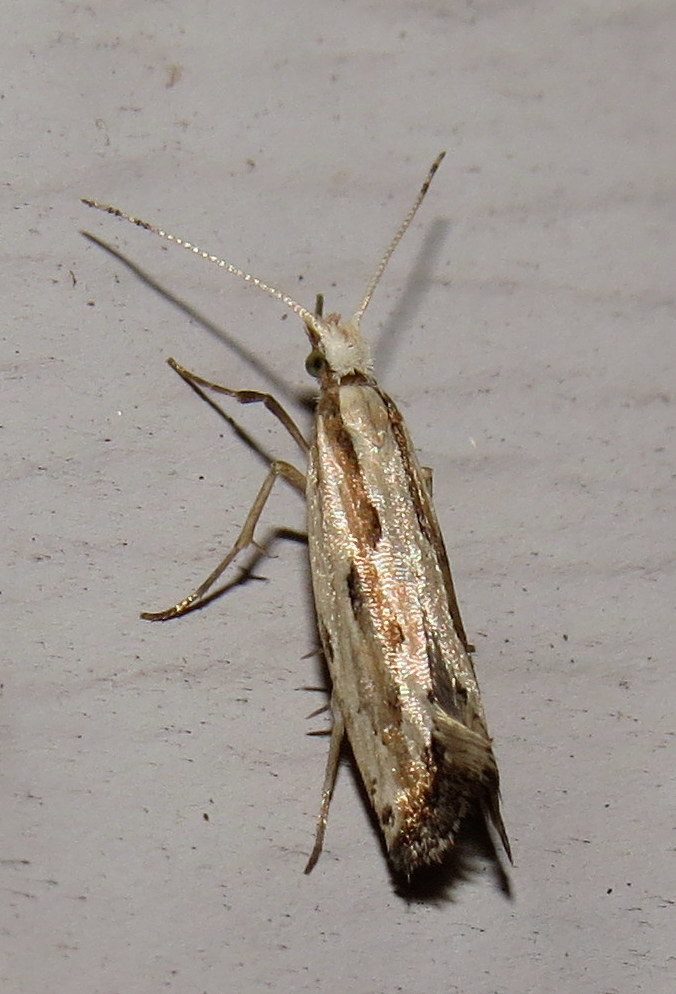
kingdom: Animalia
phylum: Arthropoda
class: Insecta
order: Lepidoptera
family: Plutellidae
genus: Plutella
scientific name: Plutella porrectella
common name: Dame's rocket moth
